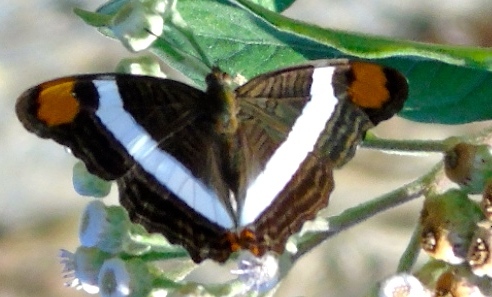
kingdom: Animalia
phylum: Arthropoda
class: Insecta
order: Lepidoptera
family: Nymphalidae
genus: Limenitis
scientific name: Limenitis fessonia
